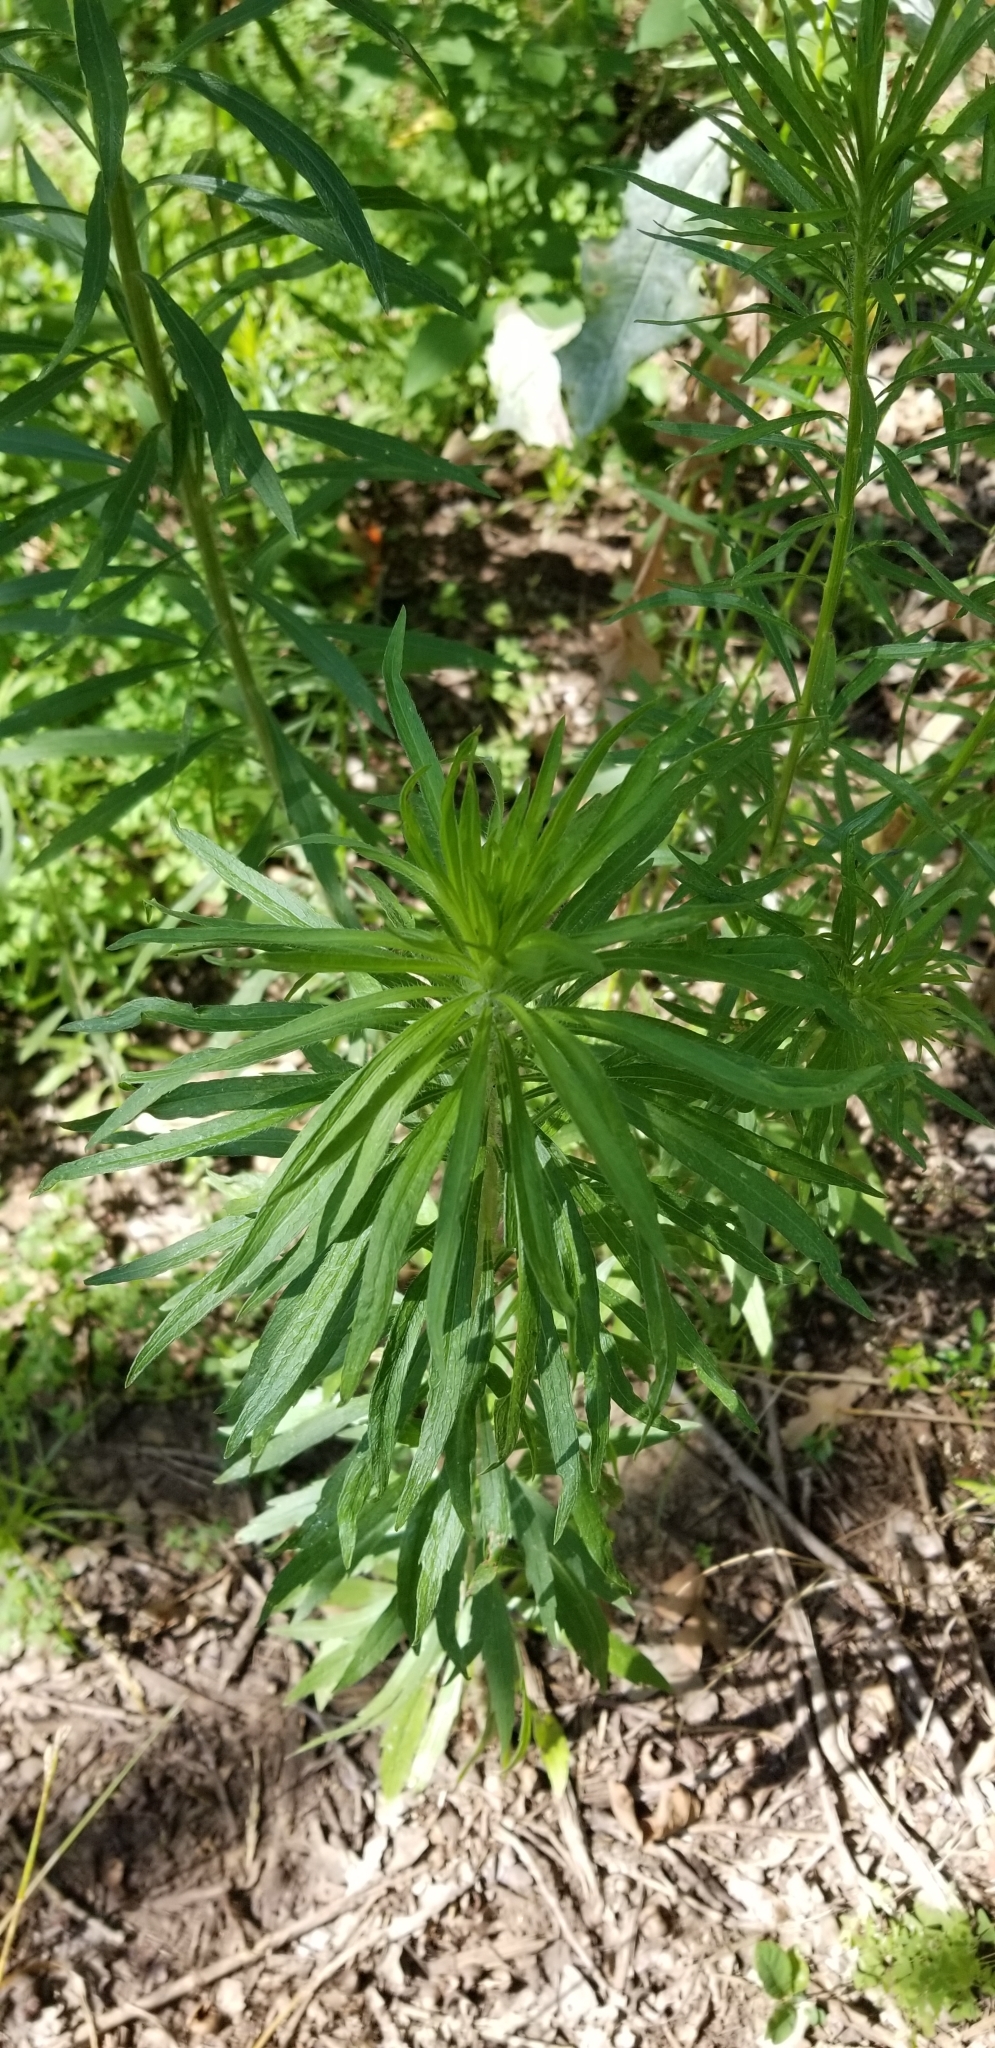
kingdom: Plantae
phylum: Tracheophyta
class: Magnoliopsida
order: Asterales
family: Asteraceae
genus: Erigeron
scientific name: Erigeron canadensis
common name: Canadian fleabane
